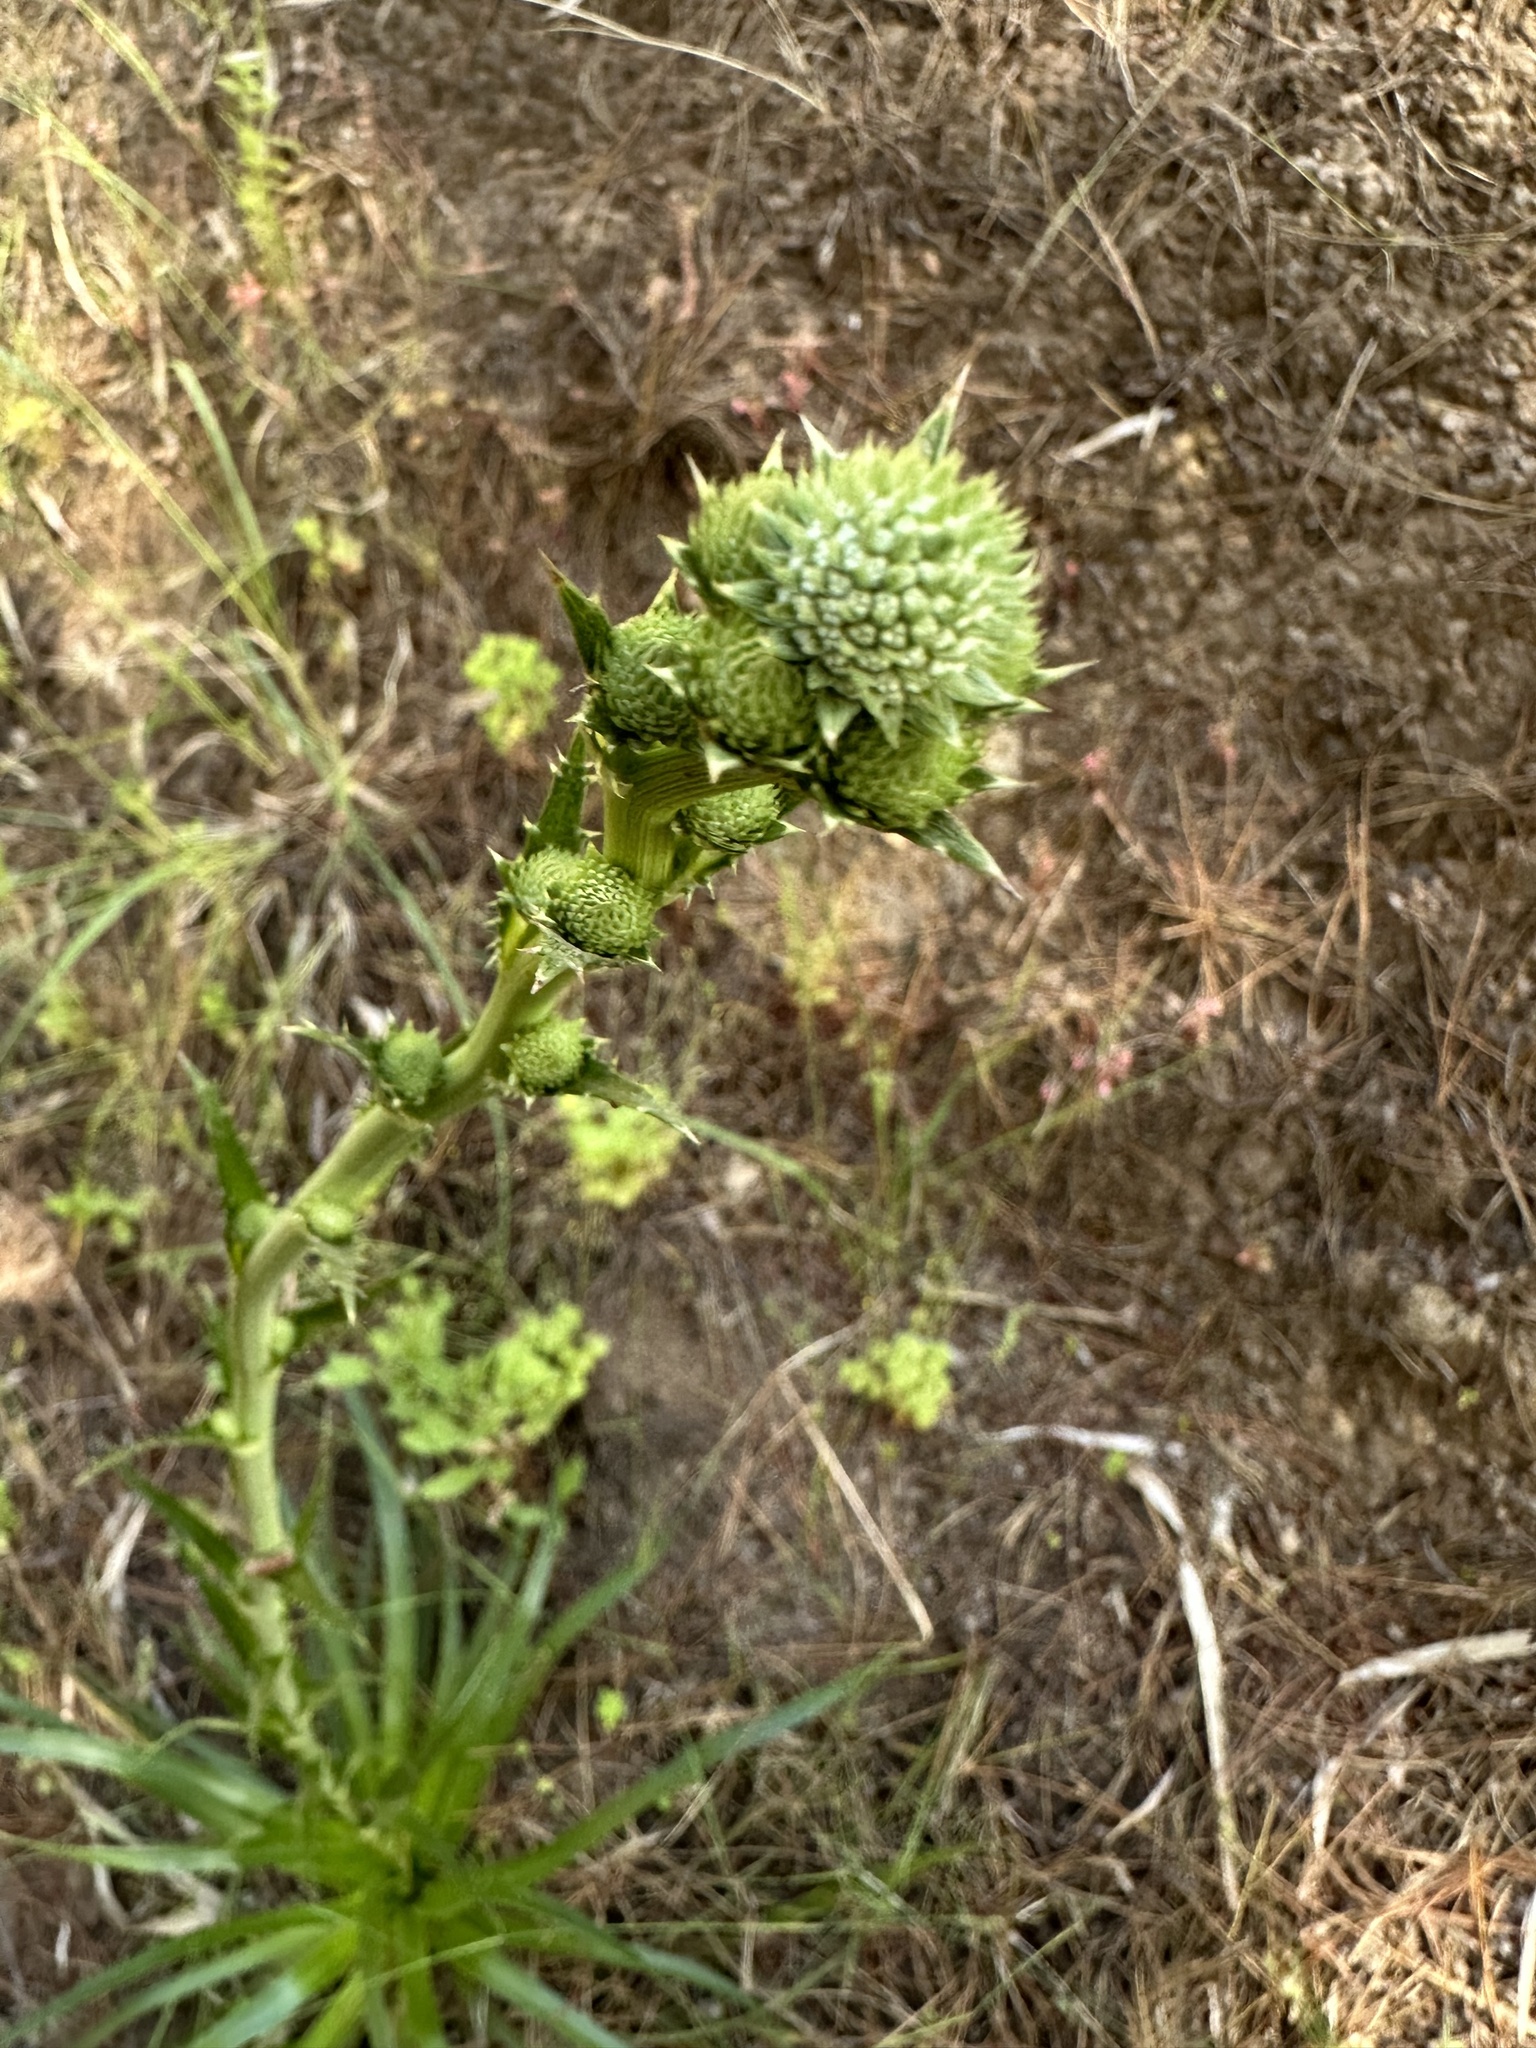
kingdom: Plantae
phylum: Tracheophyta
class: Magnoliopsida
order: Apiales
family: Apiaceae
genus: Eryngium
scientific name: Eryngium humboldtii
